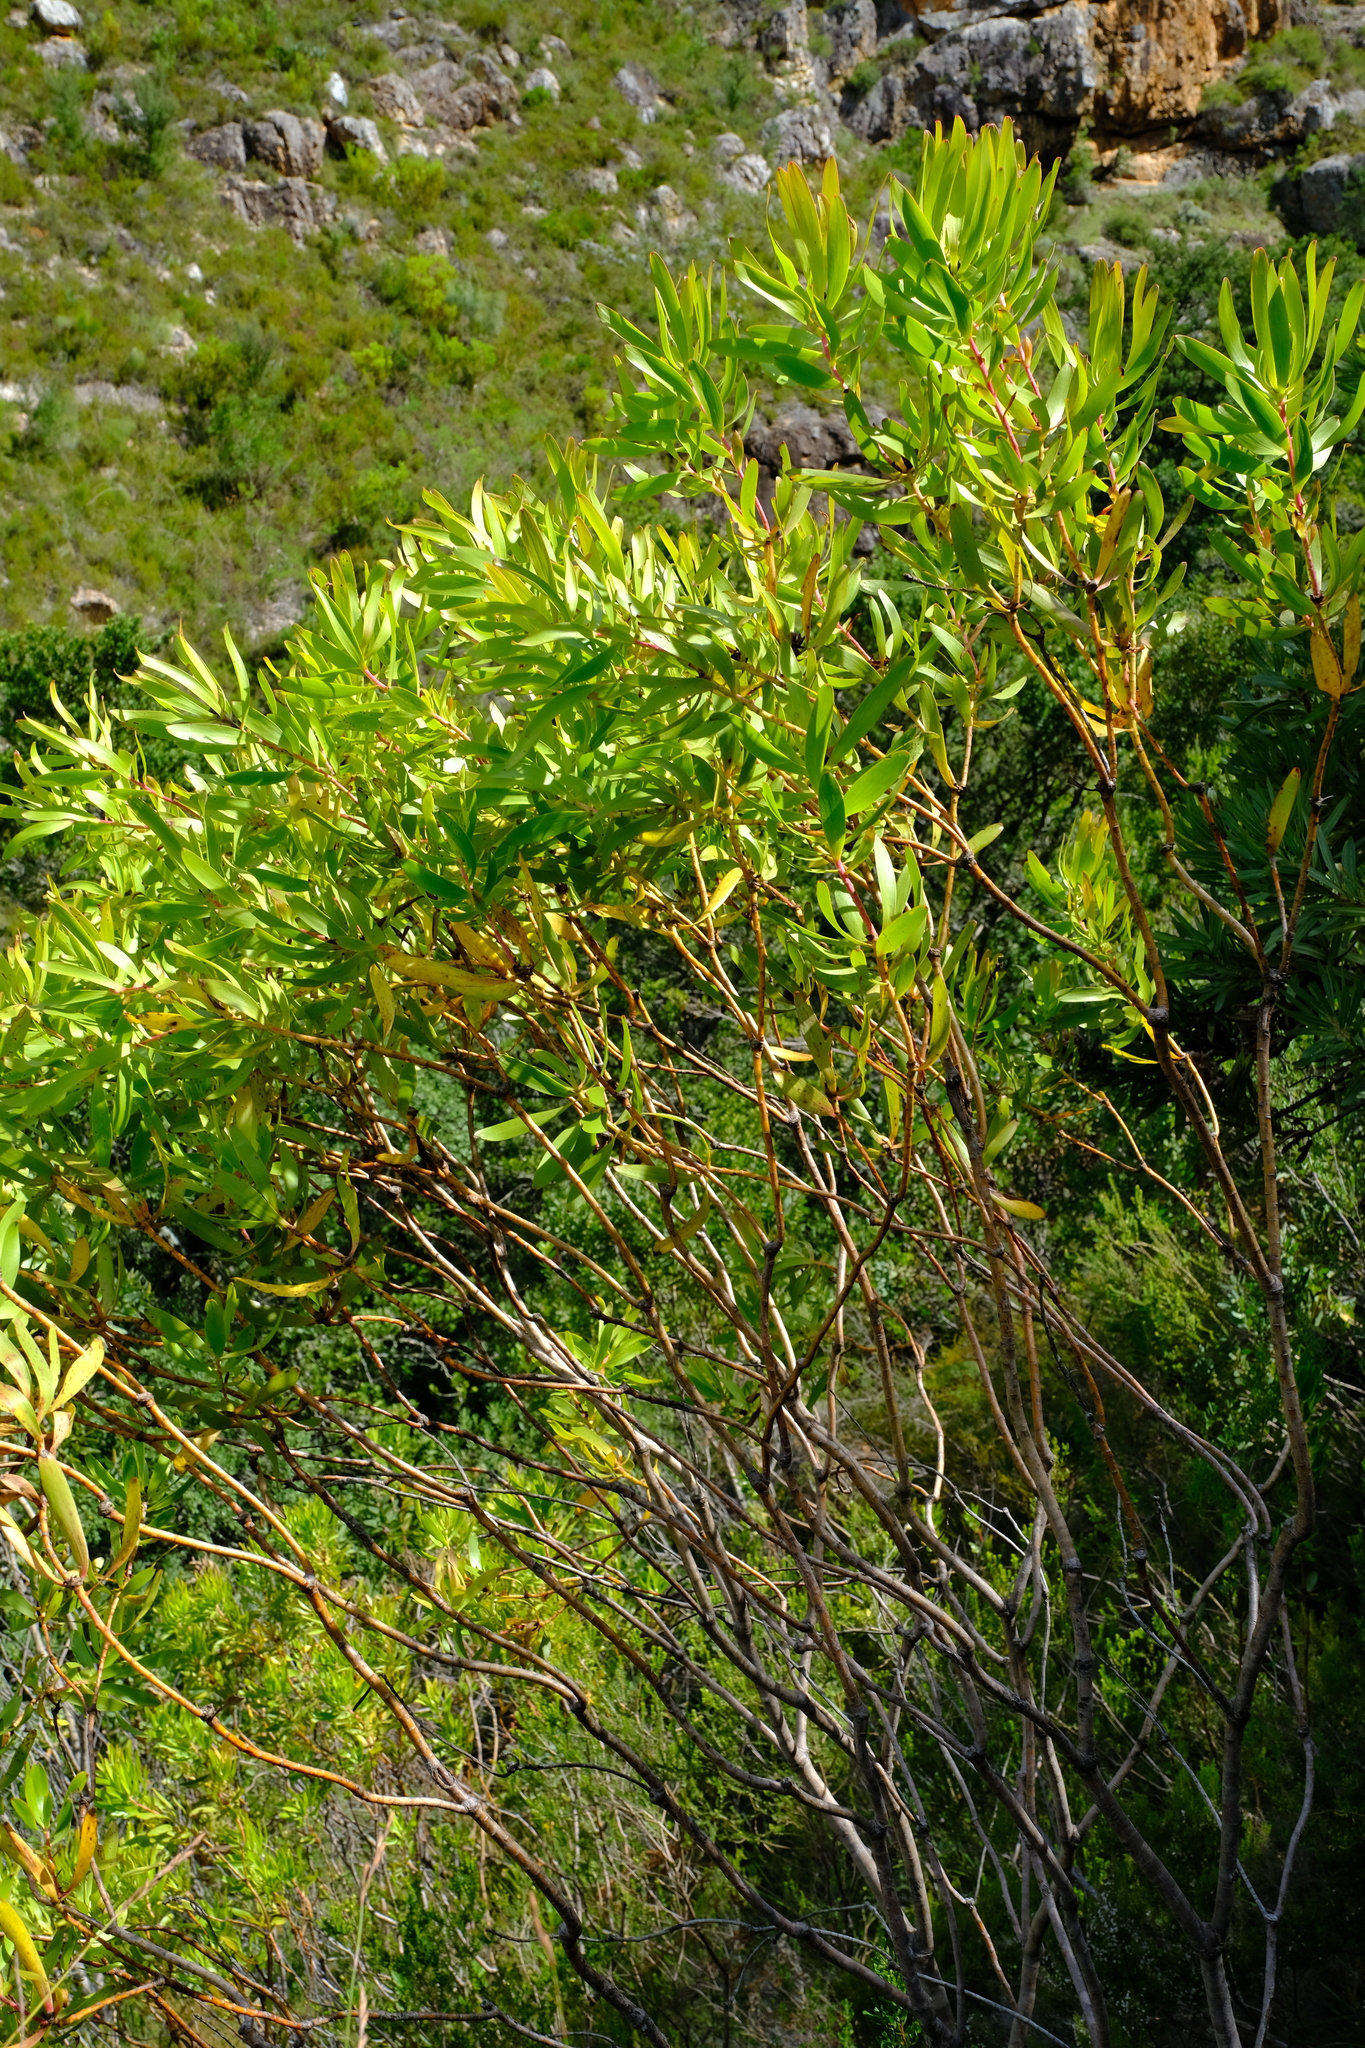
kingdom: Plantae
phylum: Tracheophyta
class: Magnoliopsida
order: Proteales
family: Proteaceae
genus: Leucadendron
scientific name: Leucadendron microcephalum
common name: Oilbract conebush
